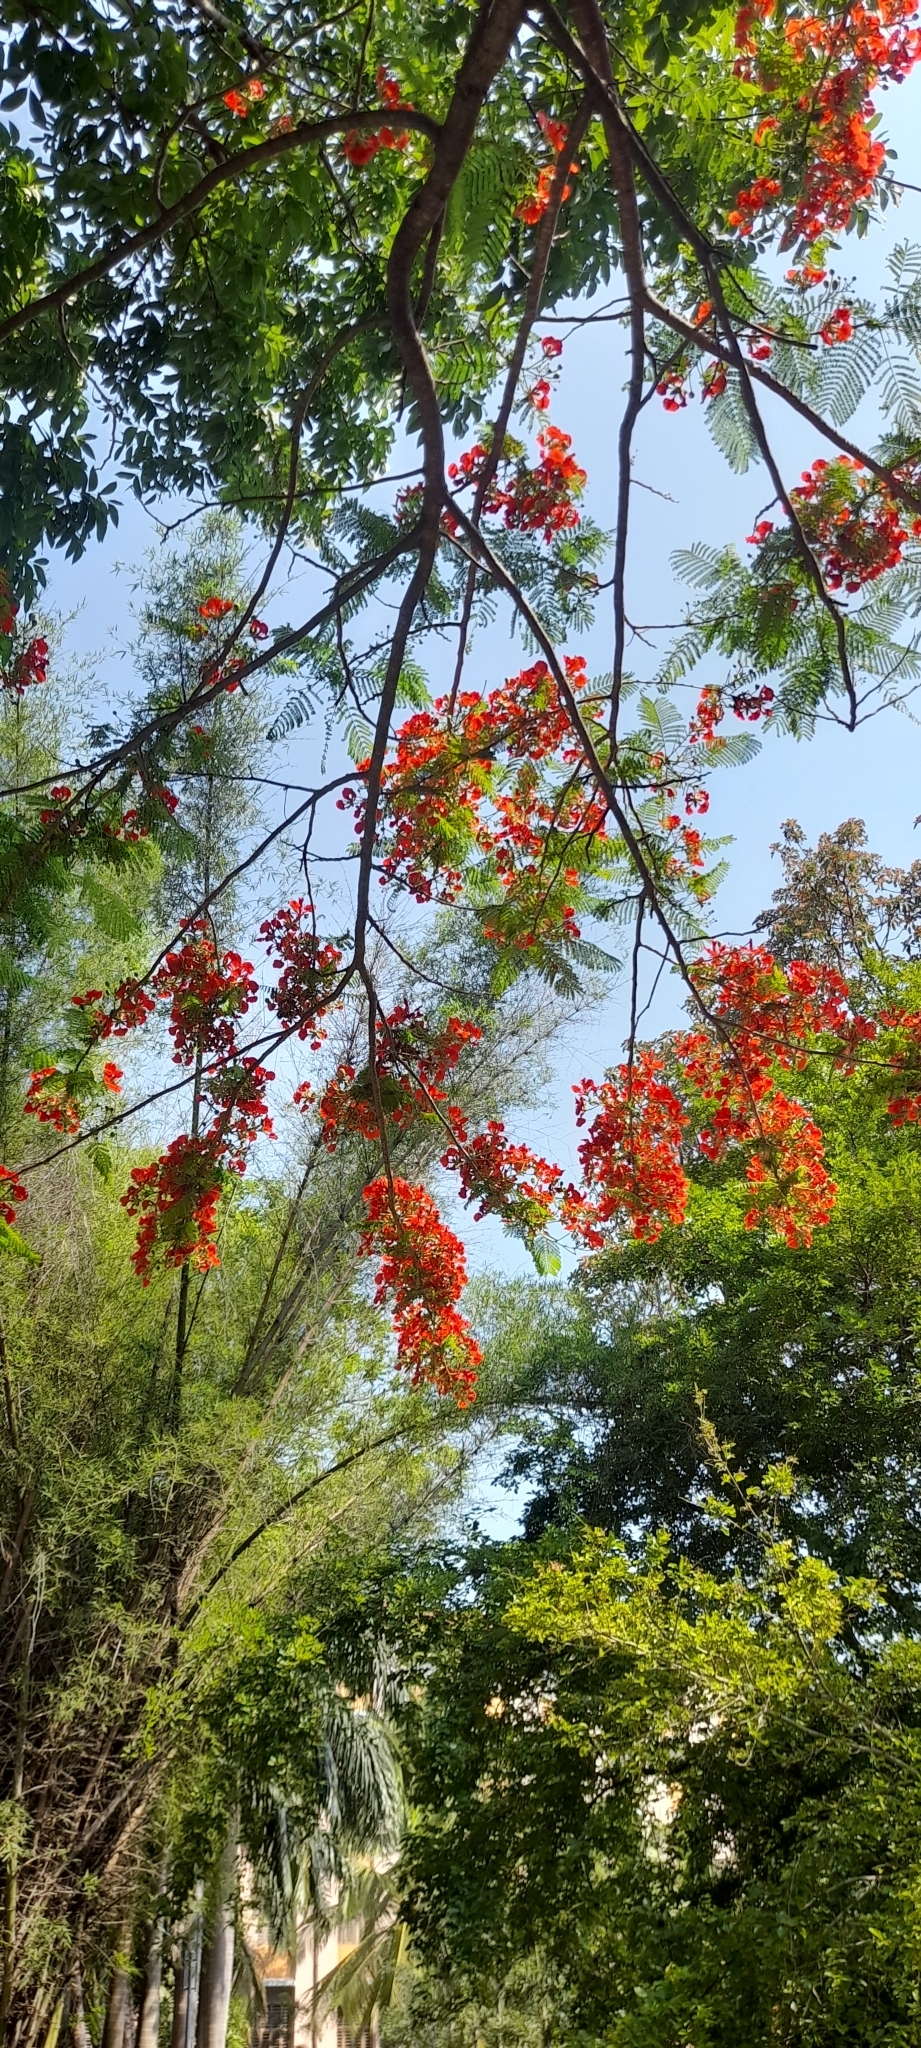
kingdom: Plantae
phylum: Tracheophyta
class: Magnoliopsida
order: Fabales
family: Fabaceae
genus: Delonix
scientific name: Delonix regia
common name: Royal poinciana
